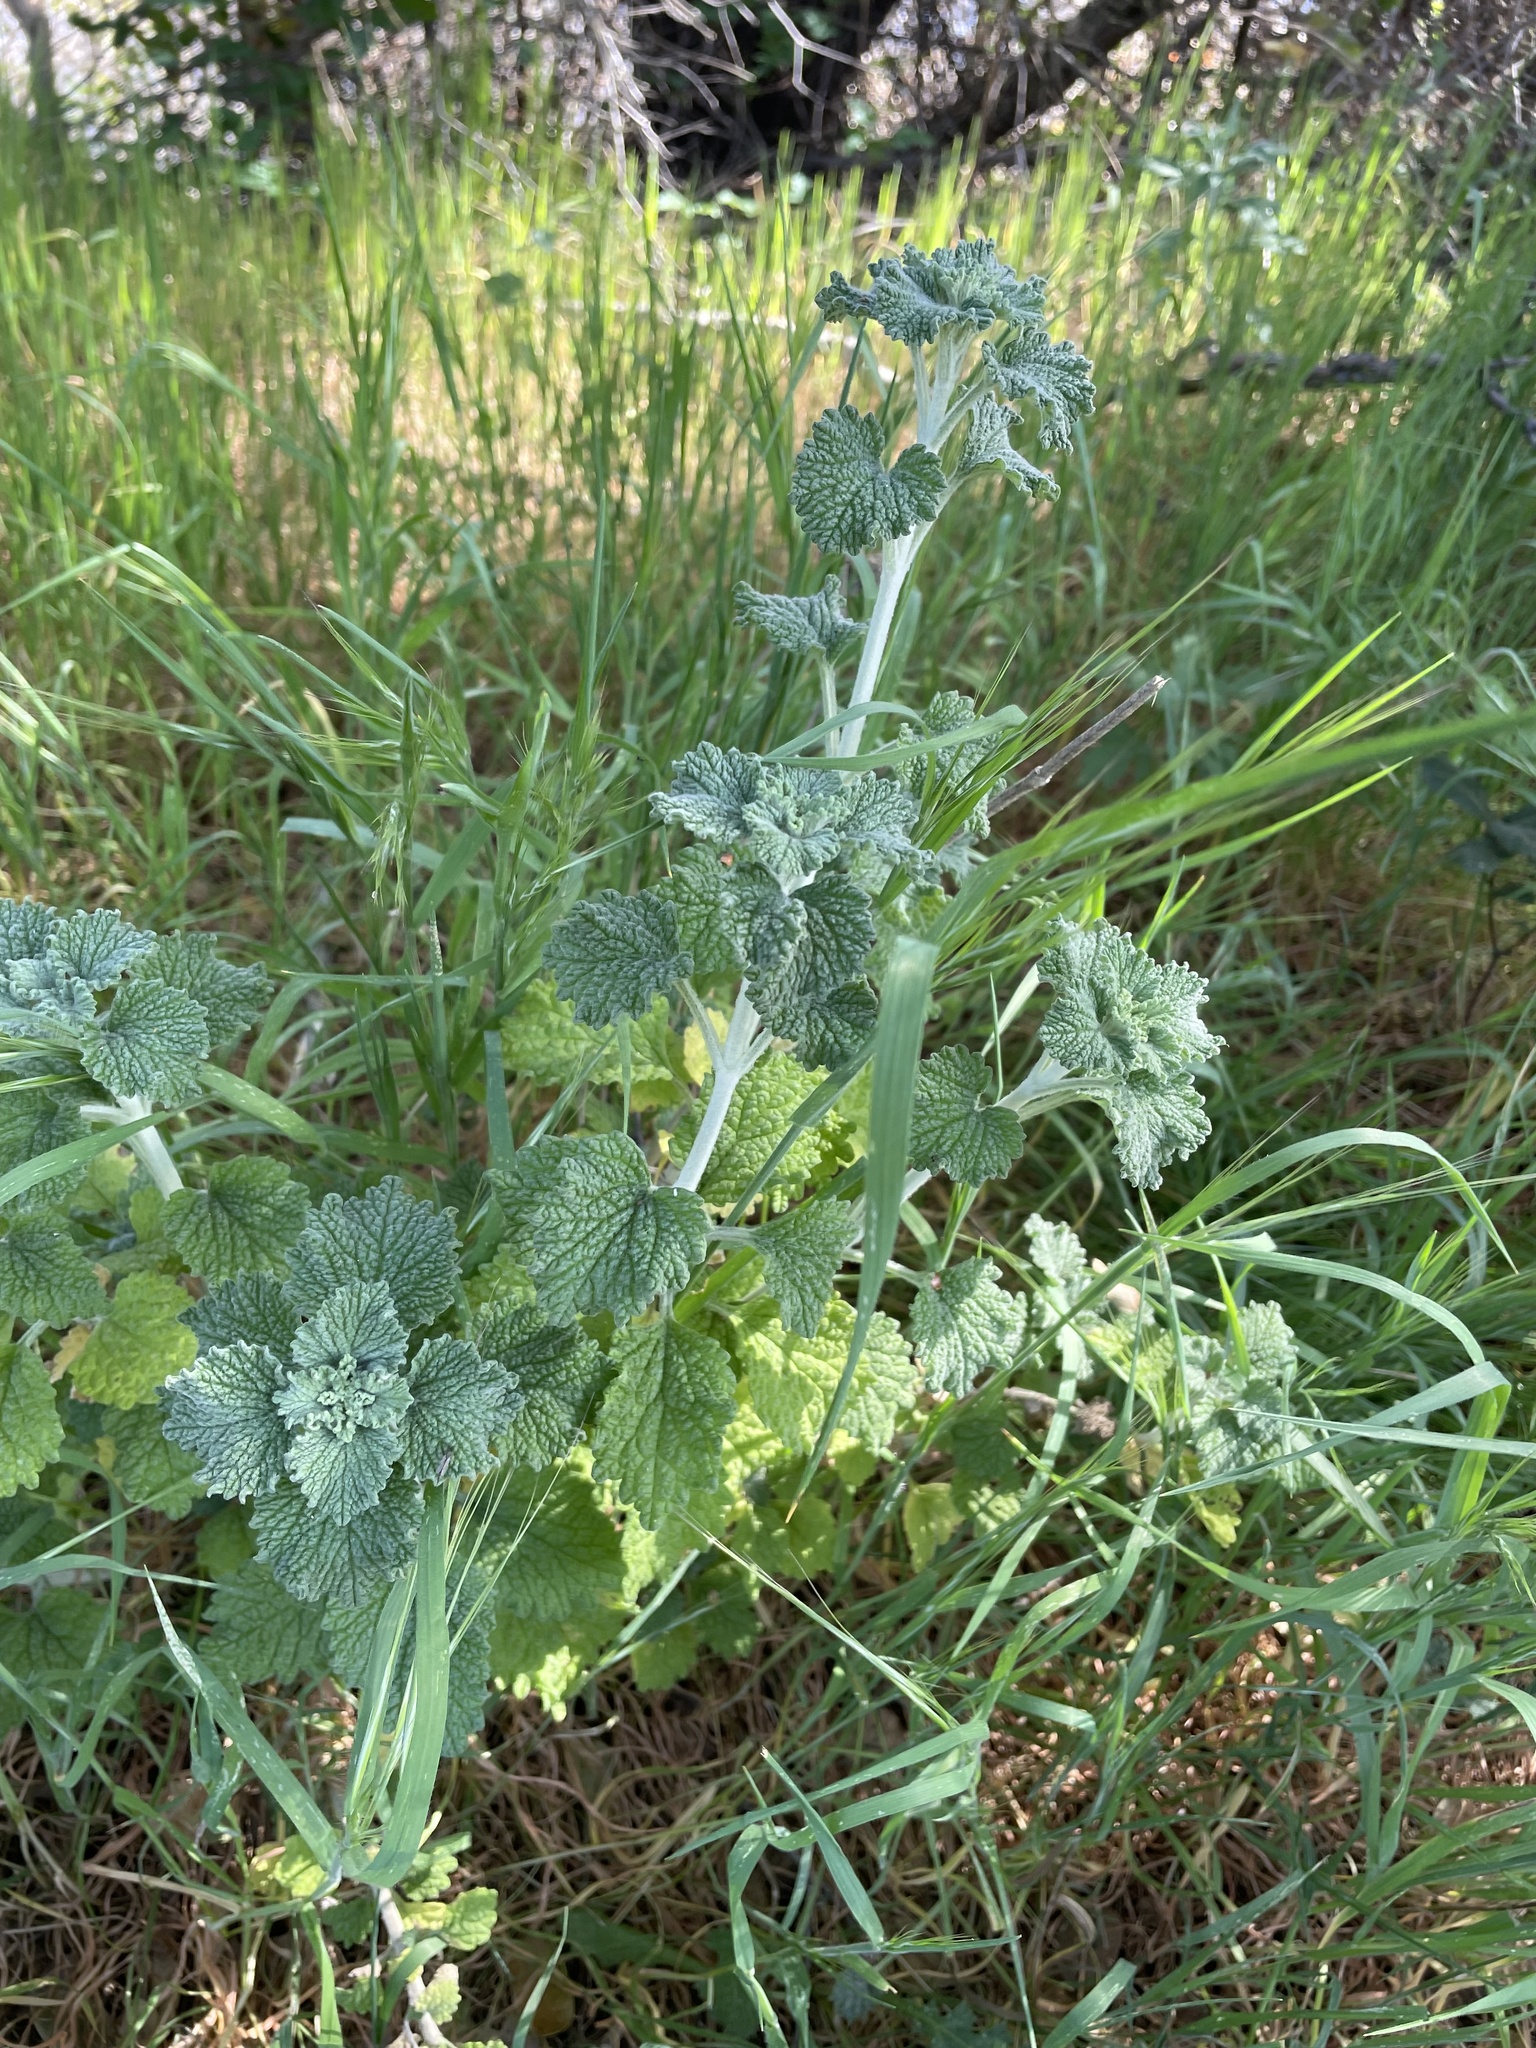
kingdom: Plantae
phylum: Tracheophyta
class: Magnoliopsida
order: Lamiales
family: Lamiaceae
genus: Marrubium
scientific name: Marrubium vulgare
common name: Horehound
